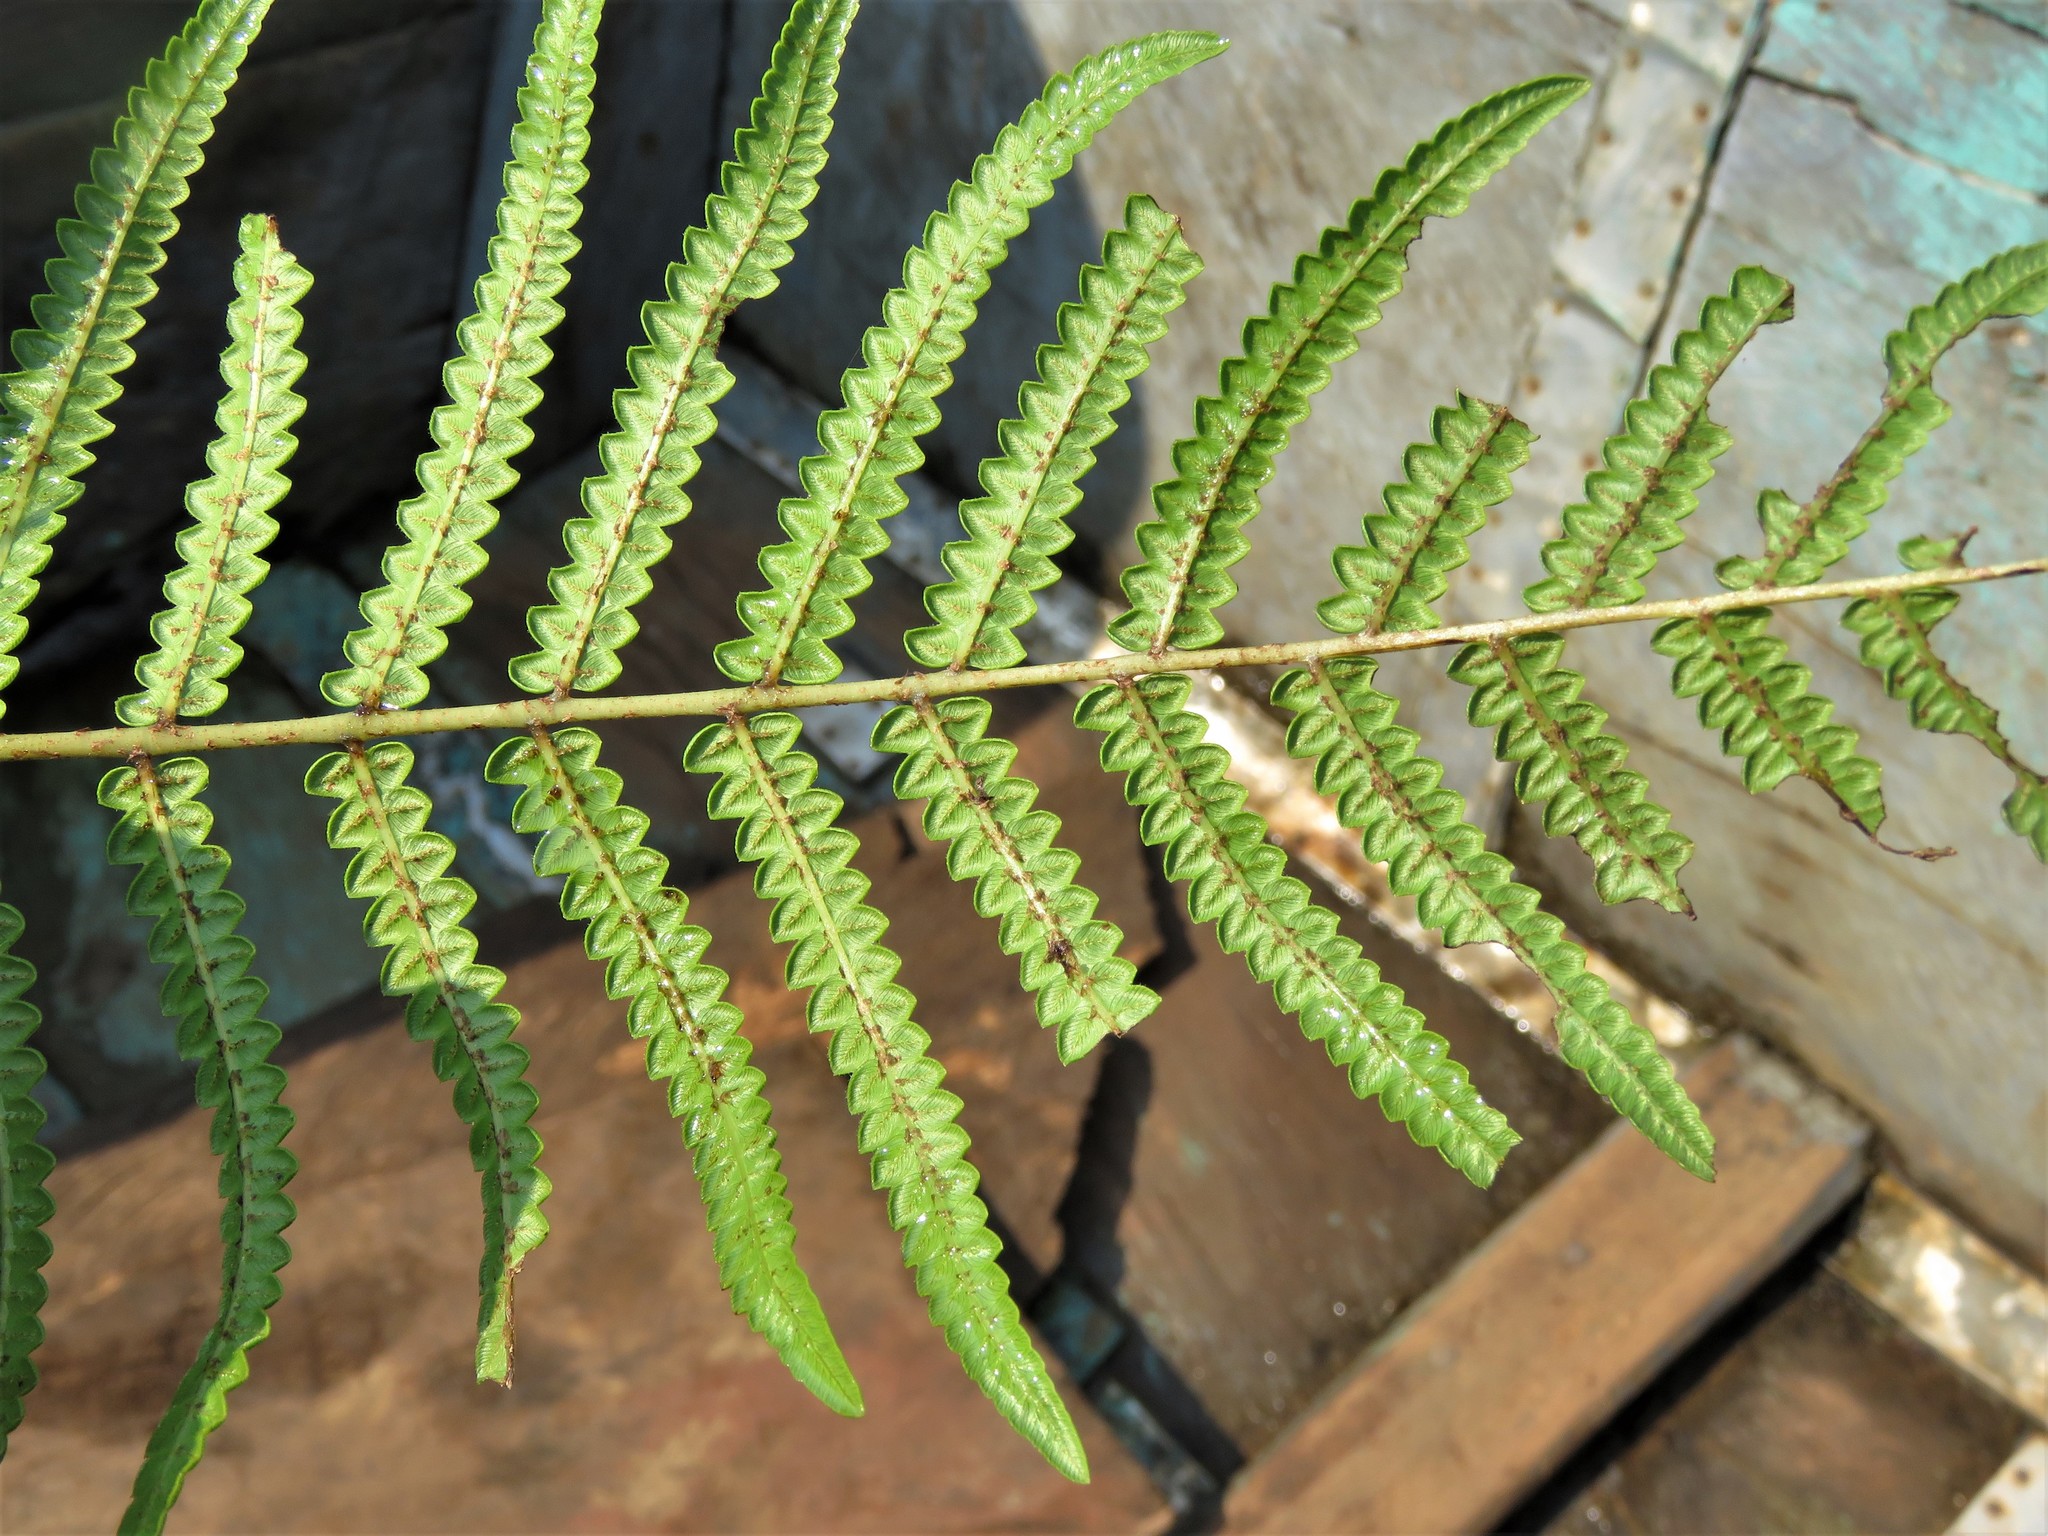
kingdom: Plantae
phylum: Tracheophyta
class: Polypodiopsida
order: Polypodiales
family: Thelypteridaceae
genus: Cyclosorus
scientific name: Cyclosorus interruptus
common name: Neke fern
